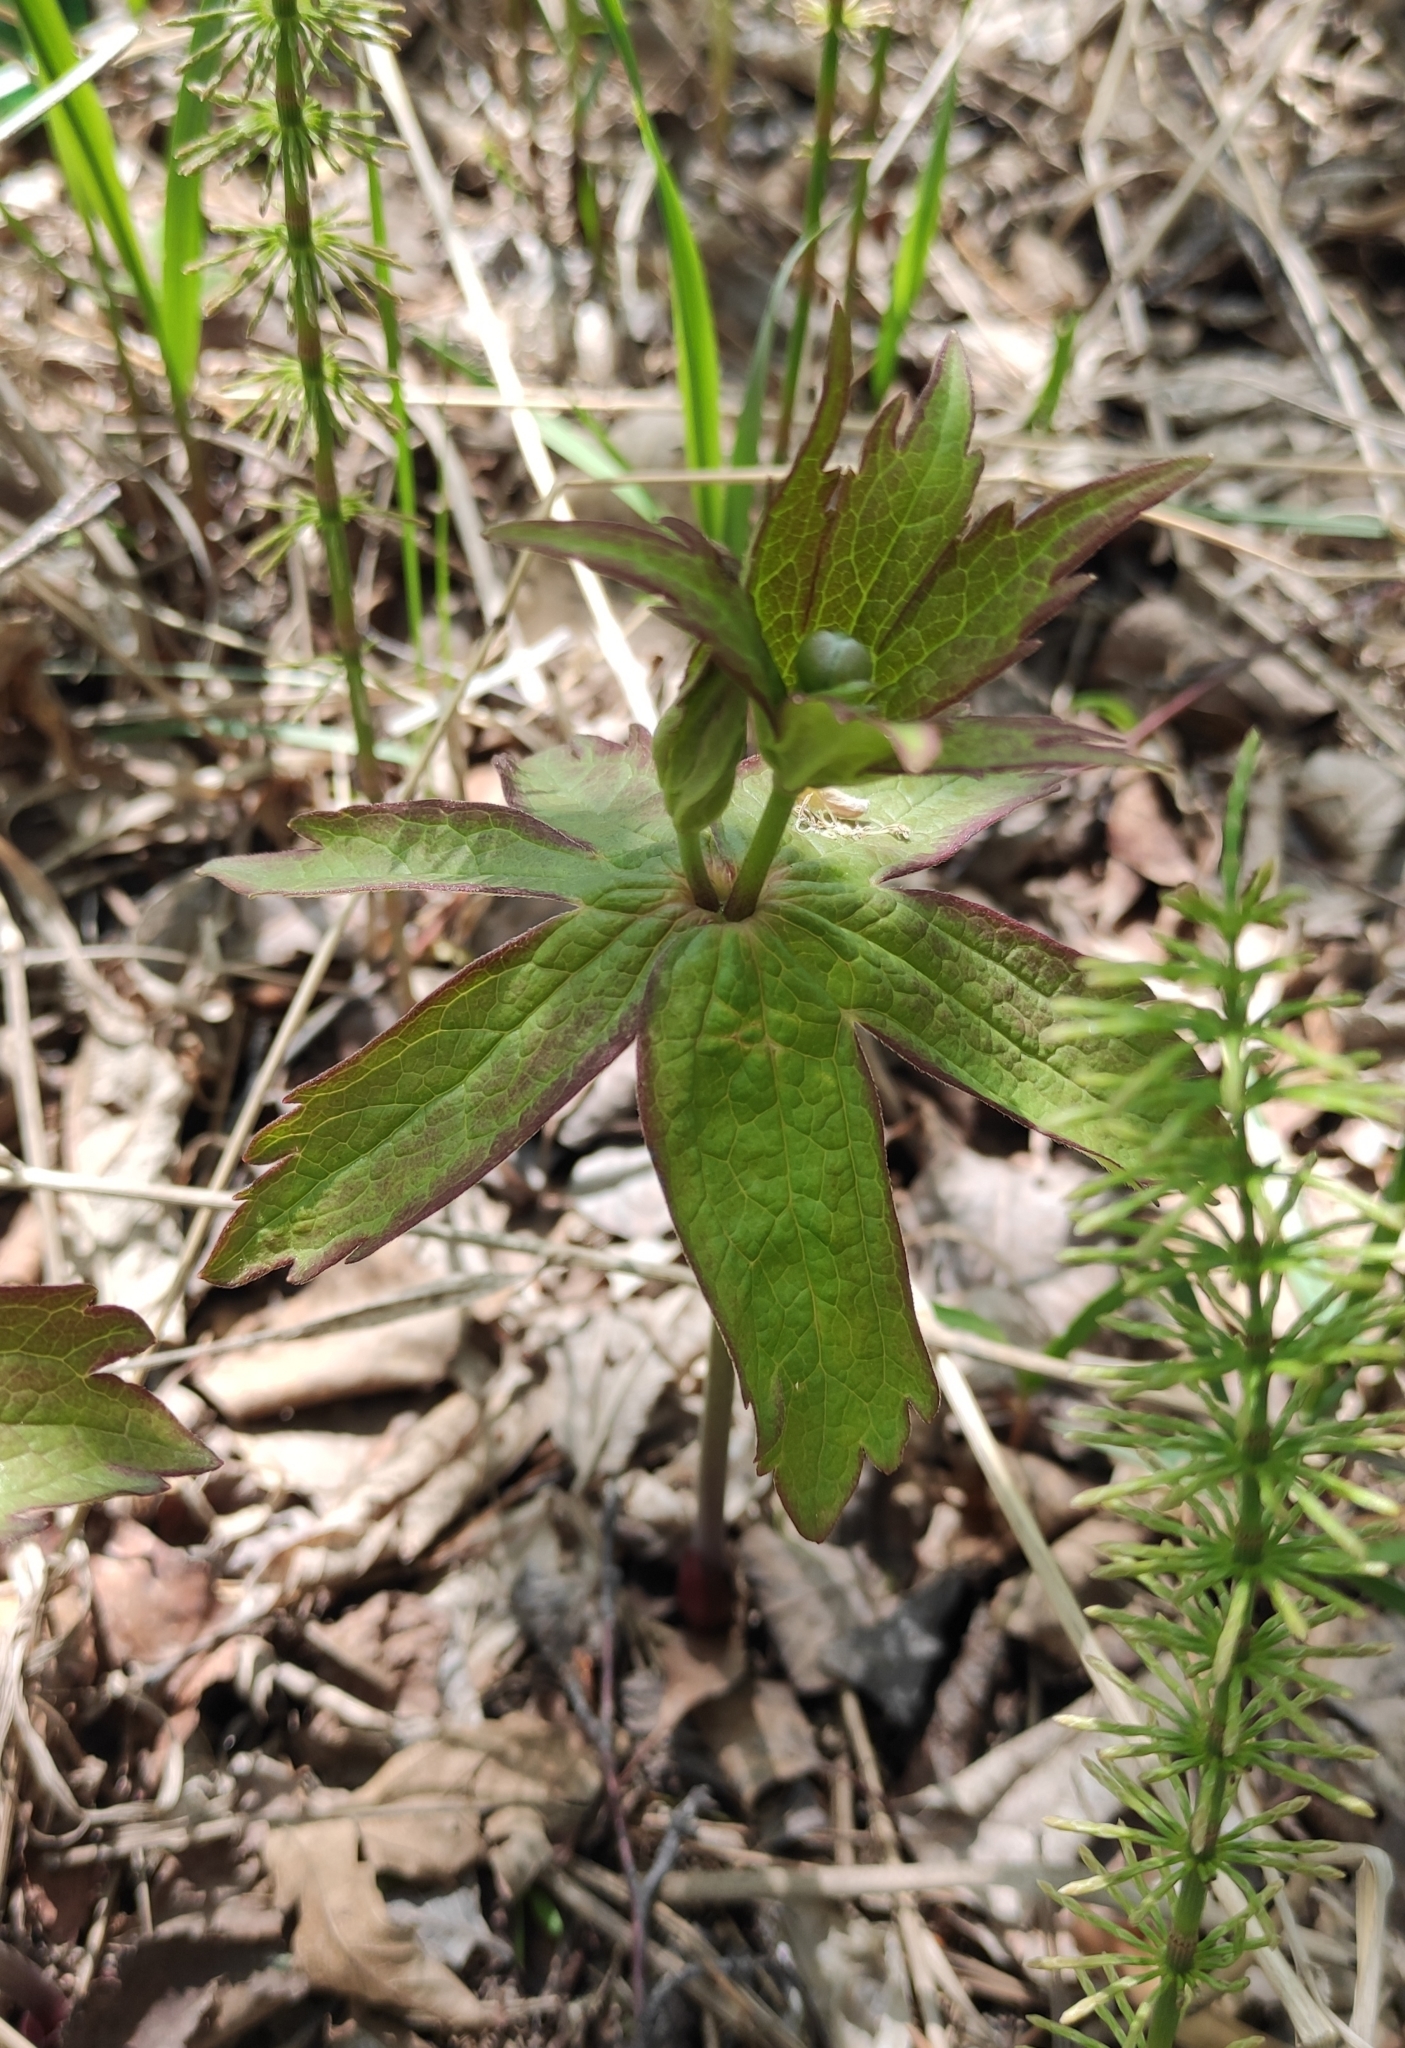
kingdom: Plantae
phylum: Tracheophyta
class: Magnoliopsida
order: Ranunculales
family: Ranunculaceae
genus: Anemonastrum
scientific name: Anemonastrum dichotomum
